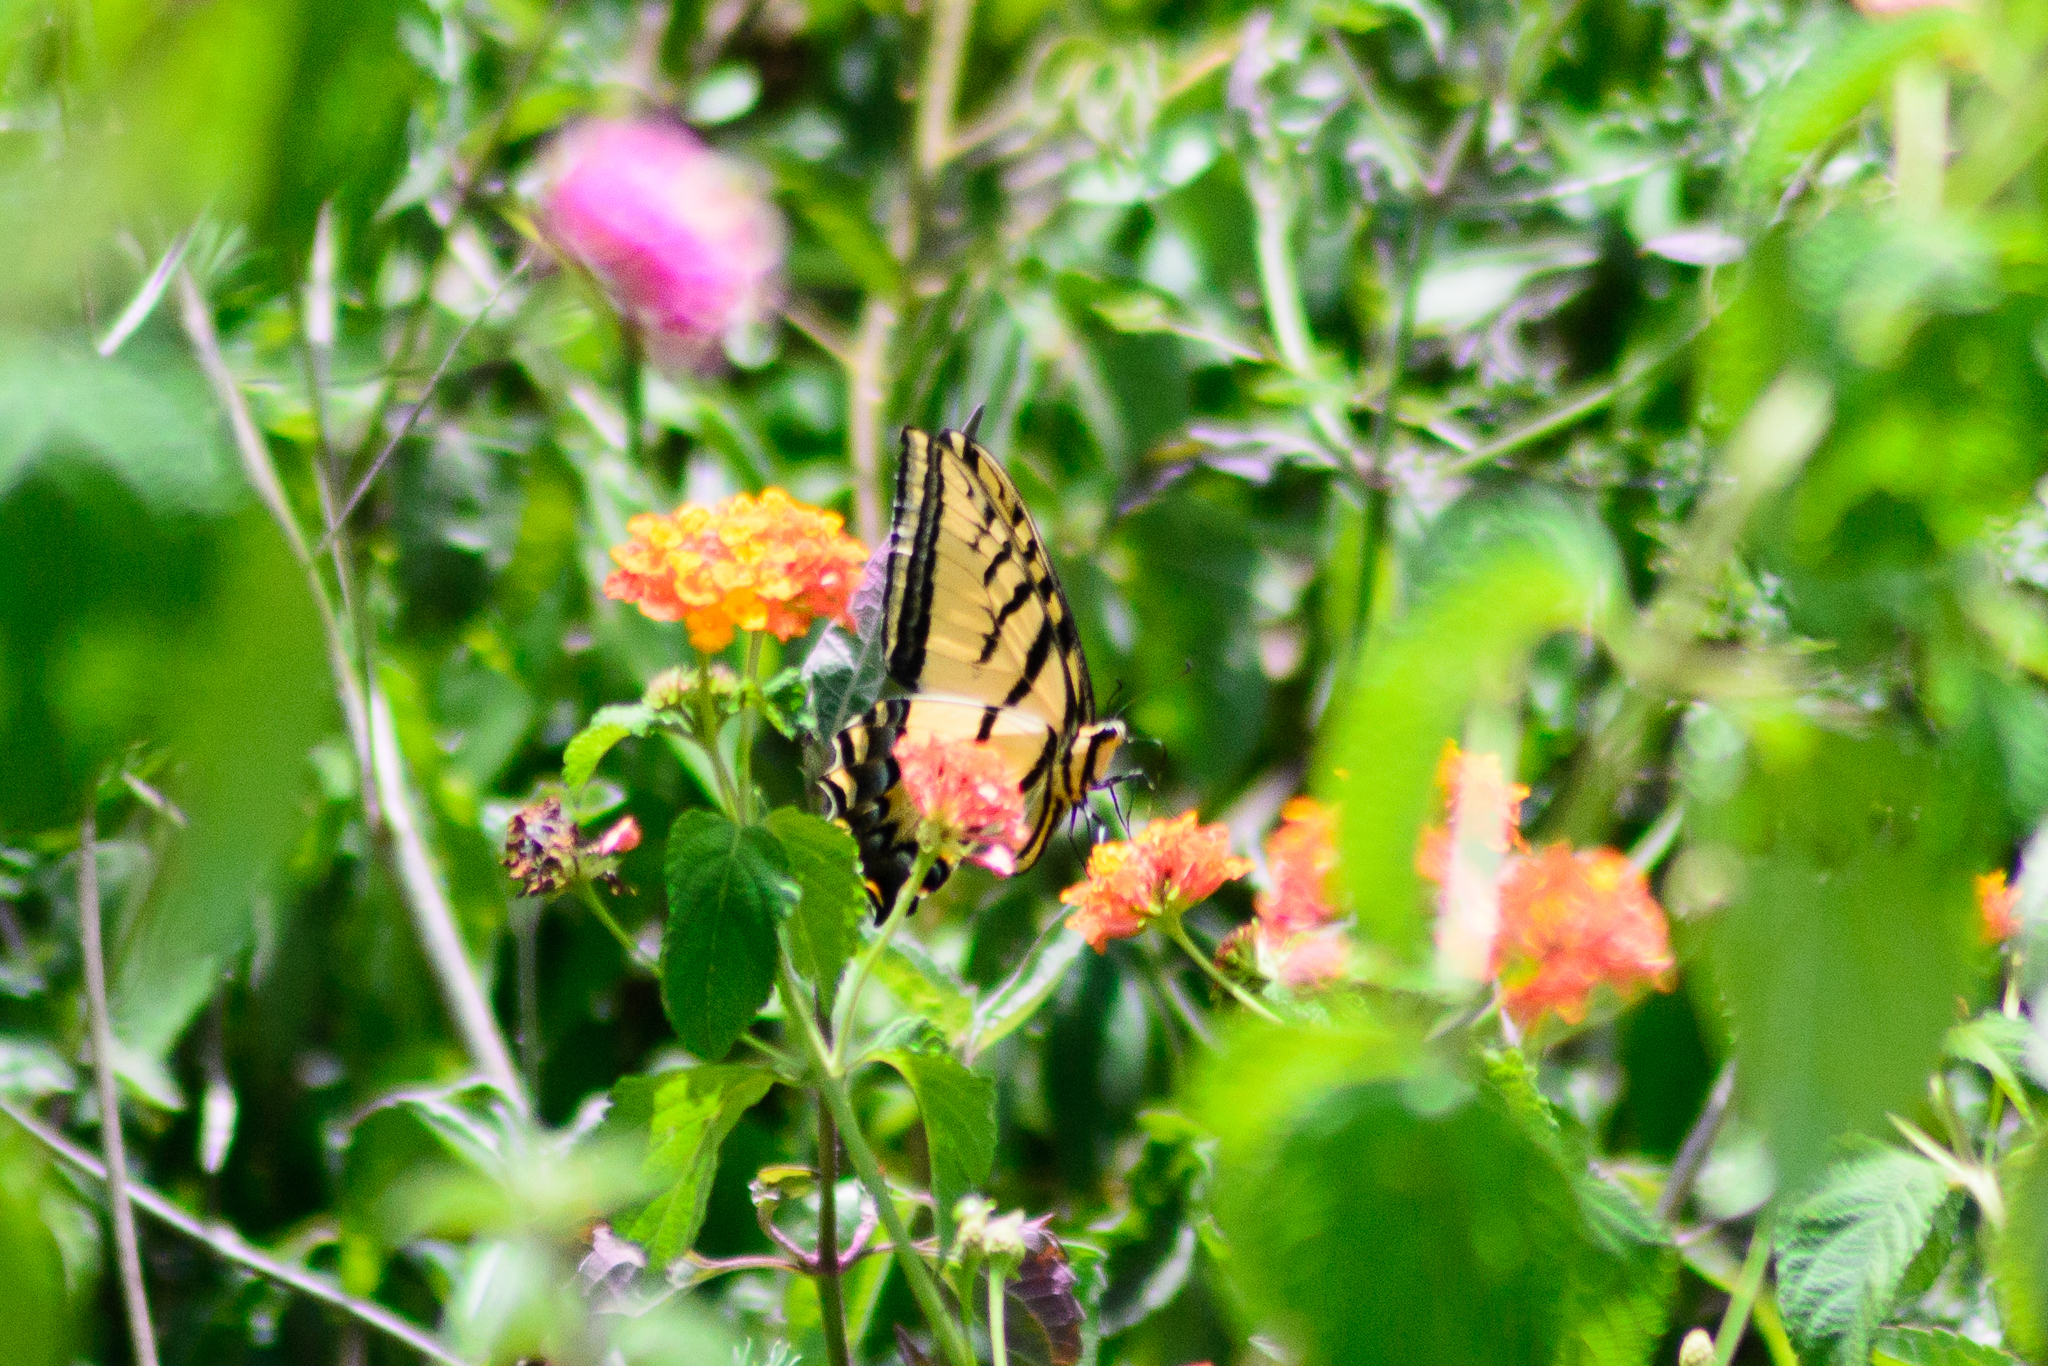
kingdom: Animalia
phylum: Arthropoda
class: Insecta
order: Lepidoptera
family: Papilionidae
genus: Papilio
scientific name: Papilio multicaudata
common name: Two-tailed tiger swallowtail
